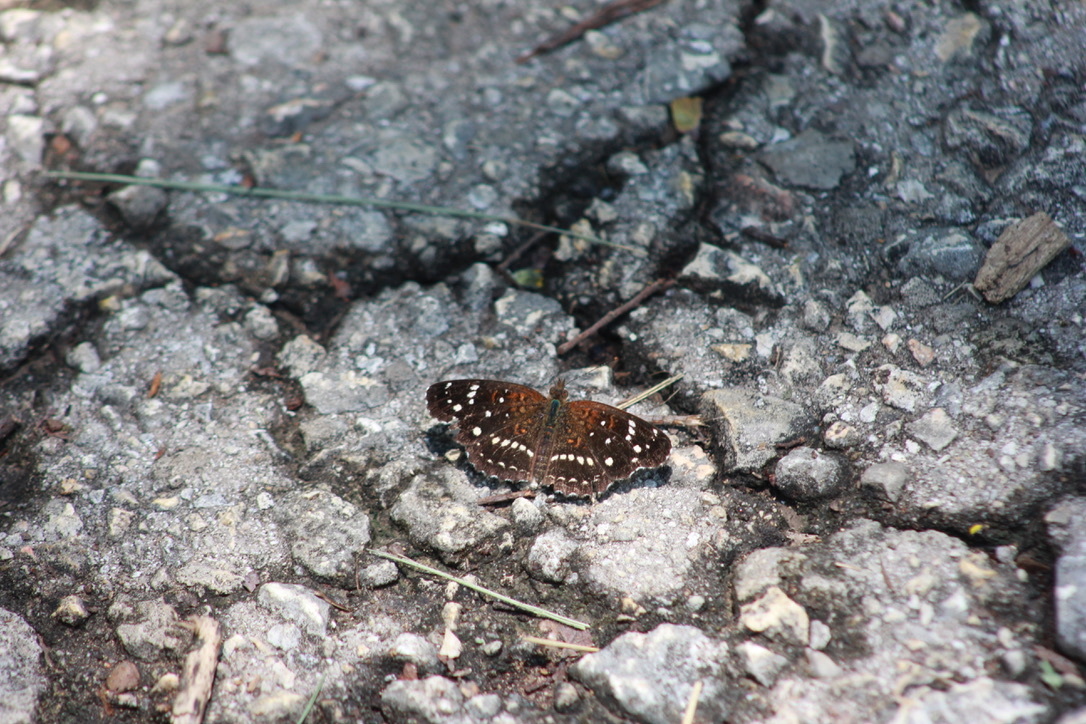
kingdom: Animalia
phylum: Arthropoda
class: Insecta
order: Lepidoptera
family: Nymphalidae
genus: Anthanassa
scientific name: Anthanassa texana
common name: Texan crescent
